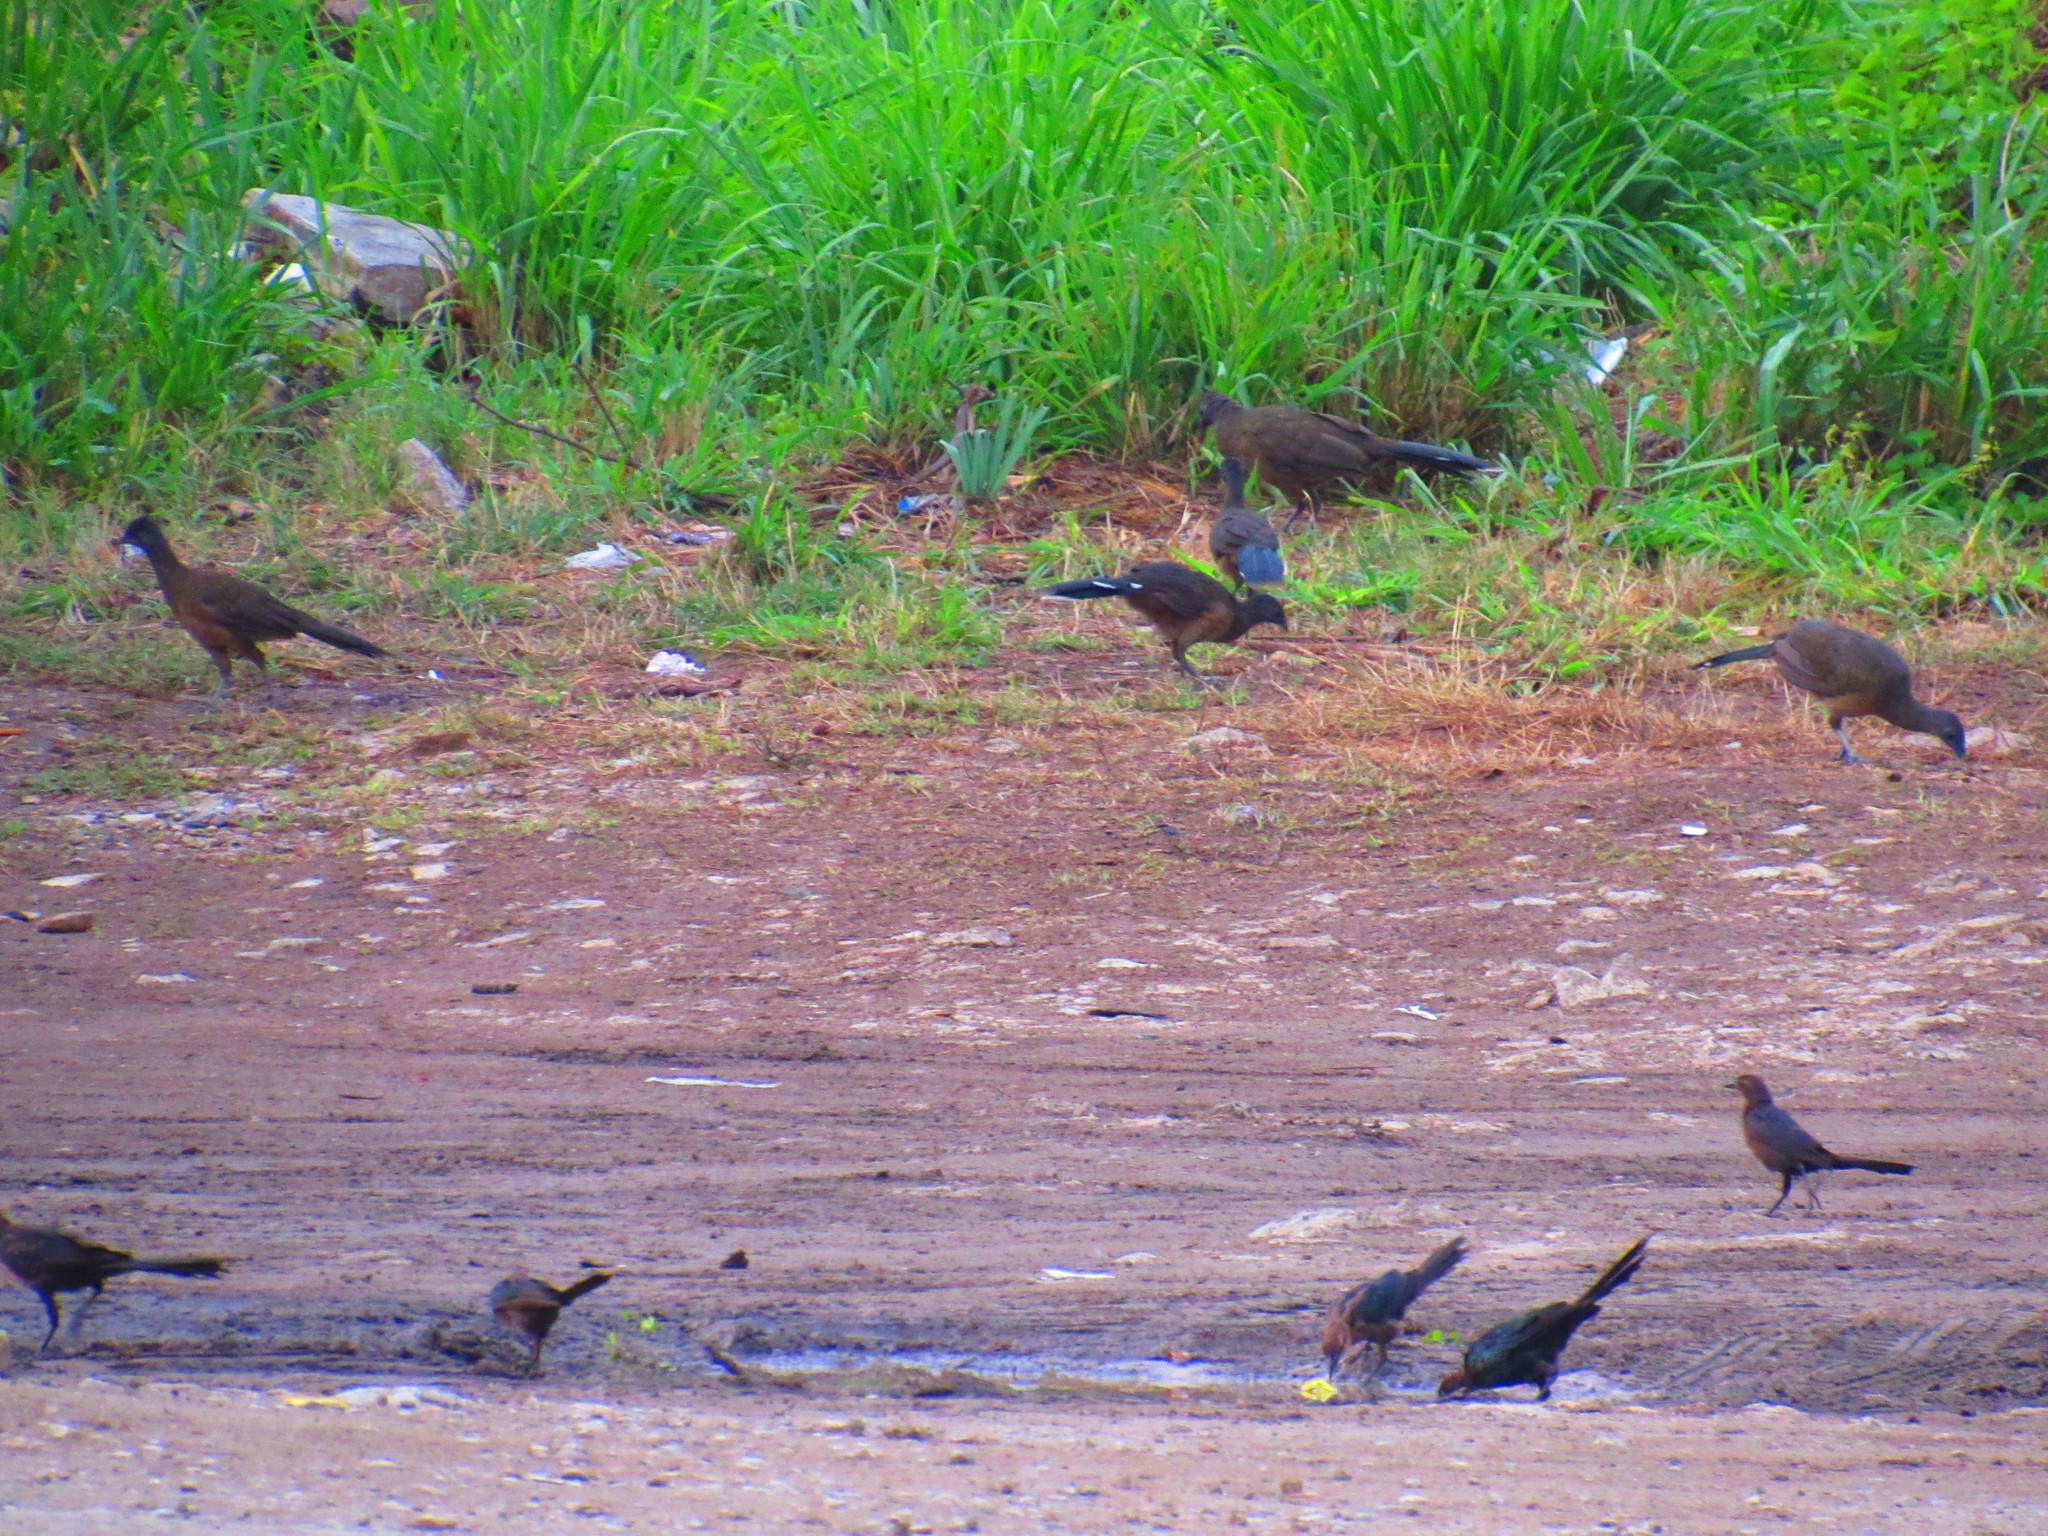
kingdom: Animalia
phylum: Chordata
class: Aves
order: Passeriformes
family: Icteridae
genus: Quiscalus
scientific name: Quiscalus mexicanus
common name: Great-tailed grackle
